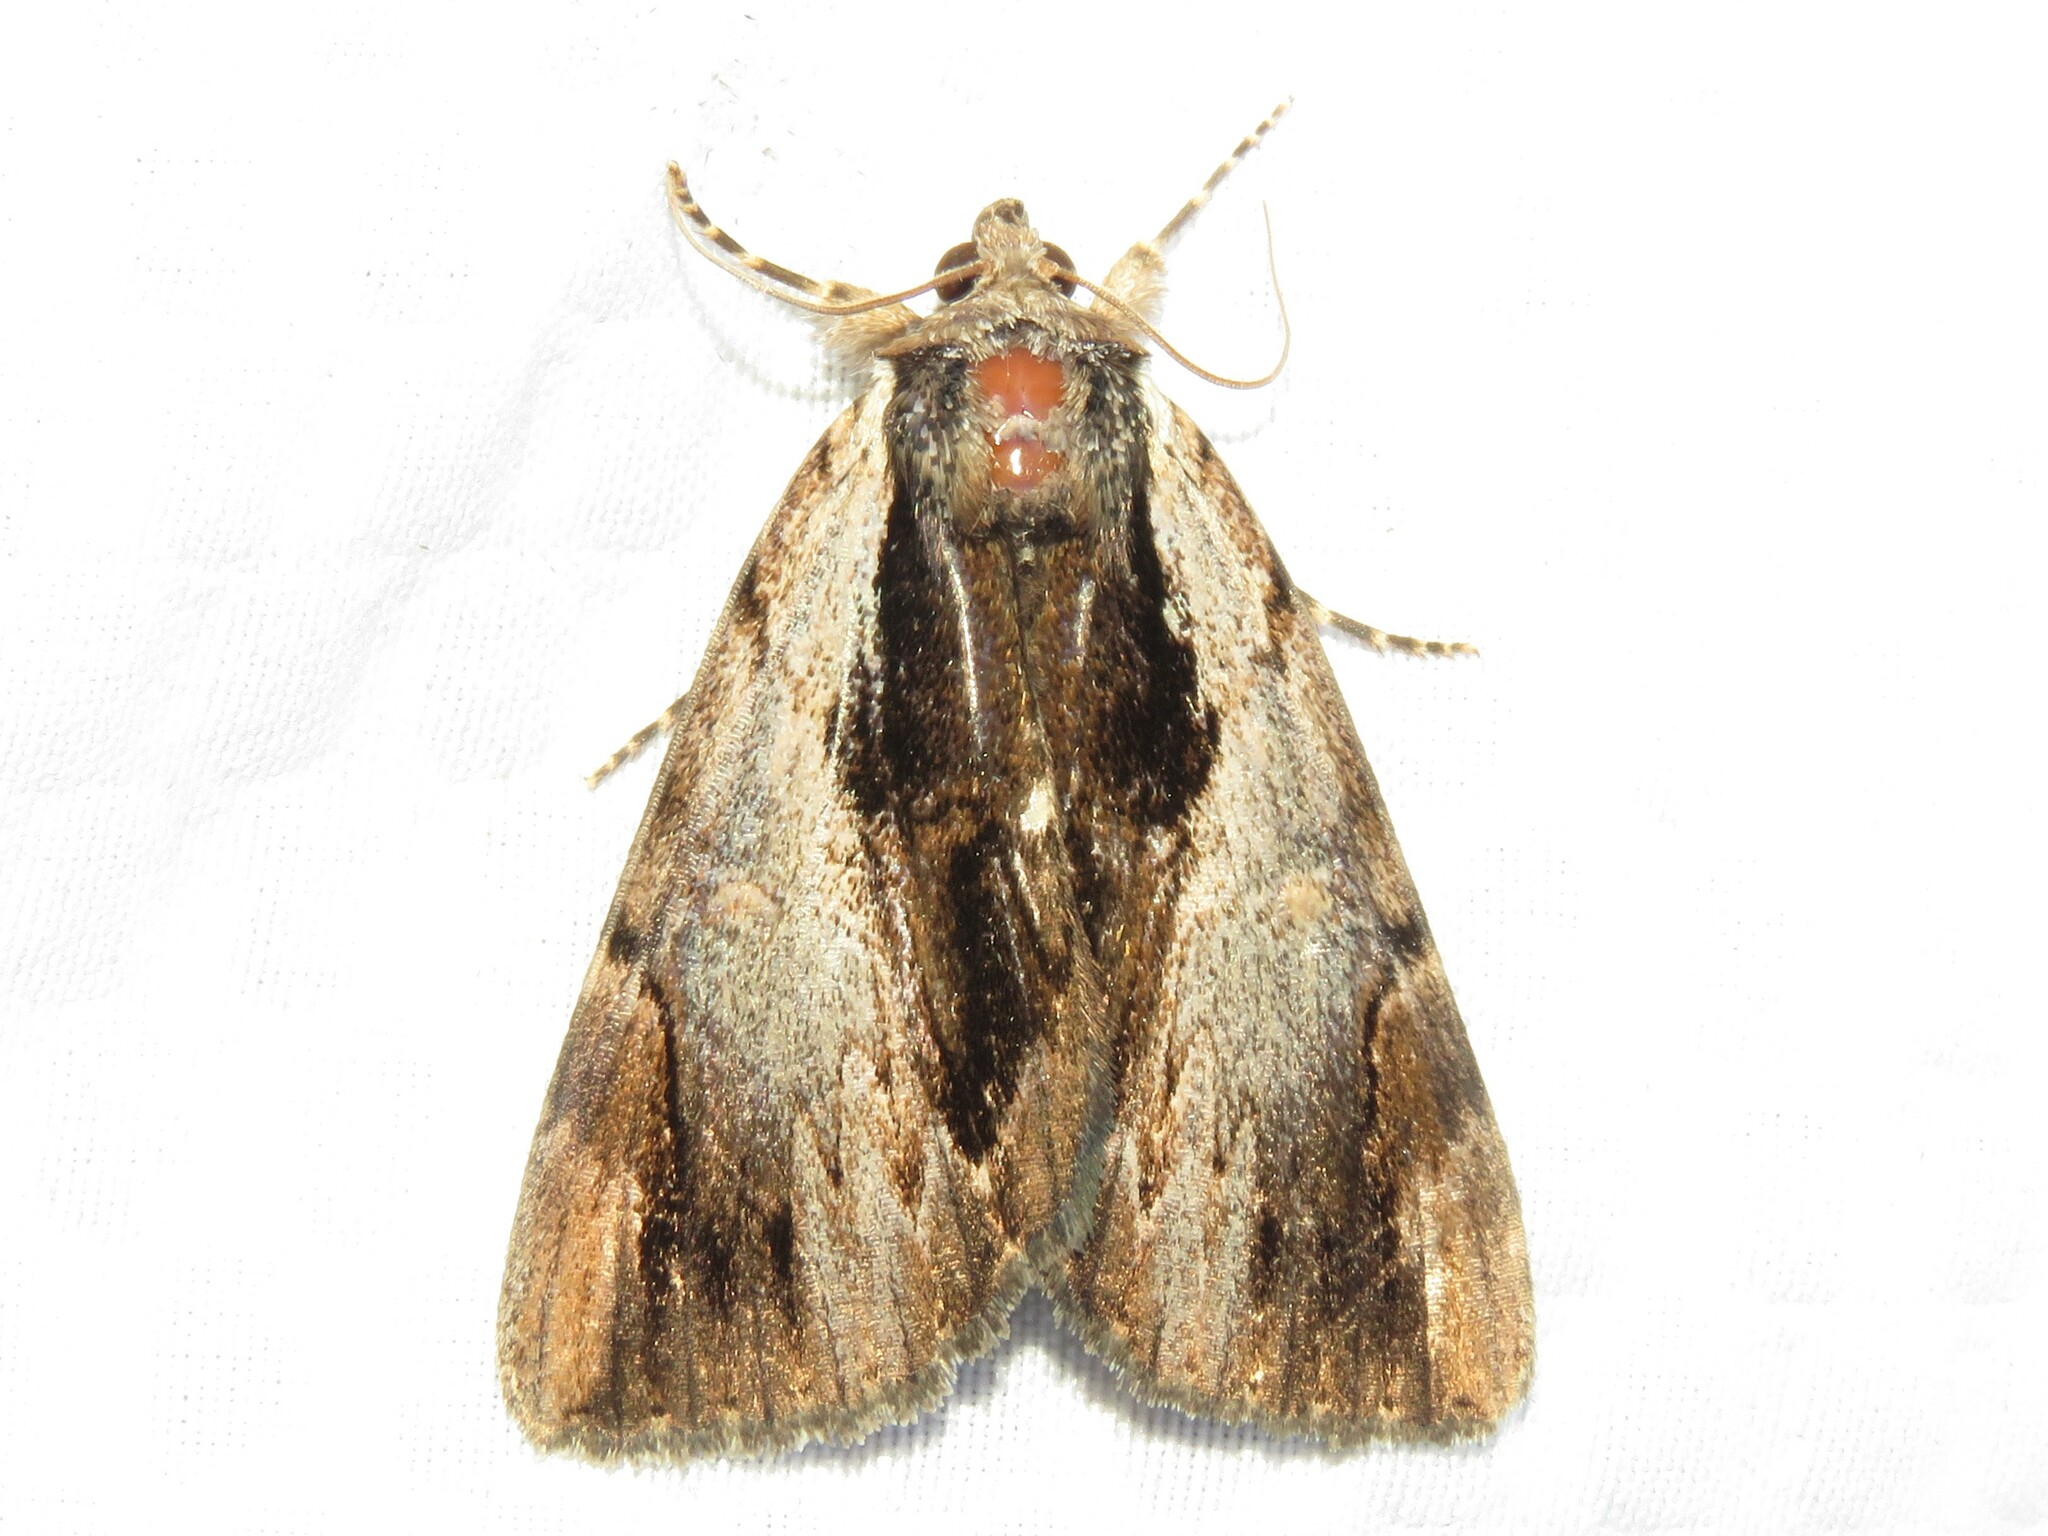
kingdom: Animalia
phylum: Arthropoda
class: Insecta
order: Lepidoptera
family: Erebidae
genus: Catocala
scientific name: Catocala ultronia
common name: Ultronia underwing
